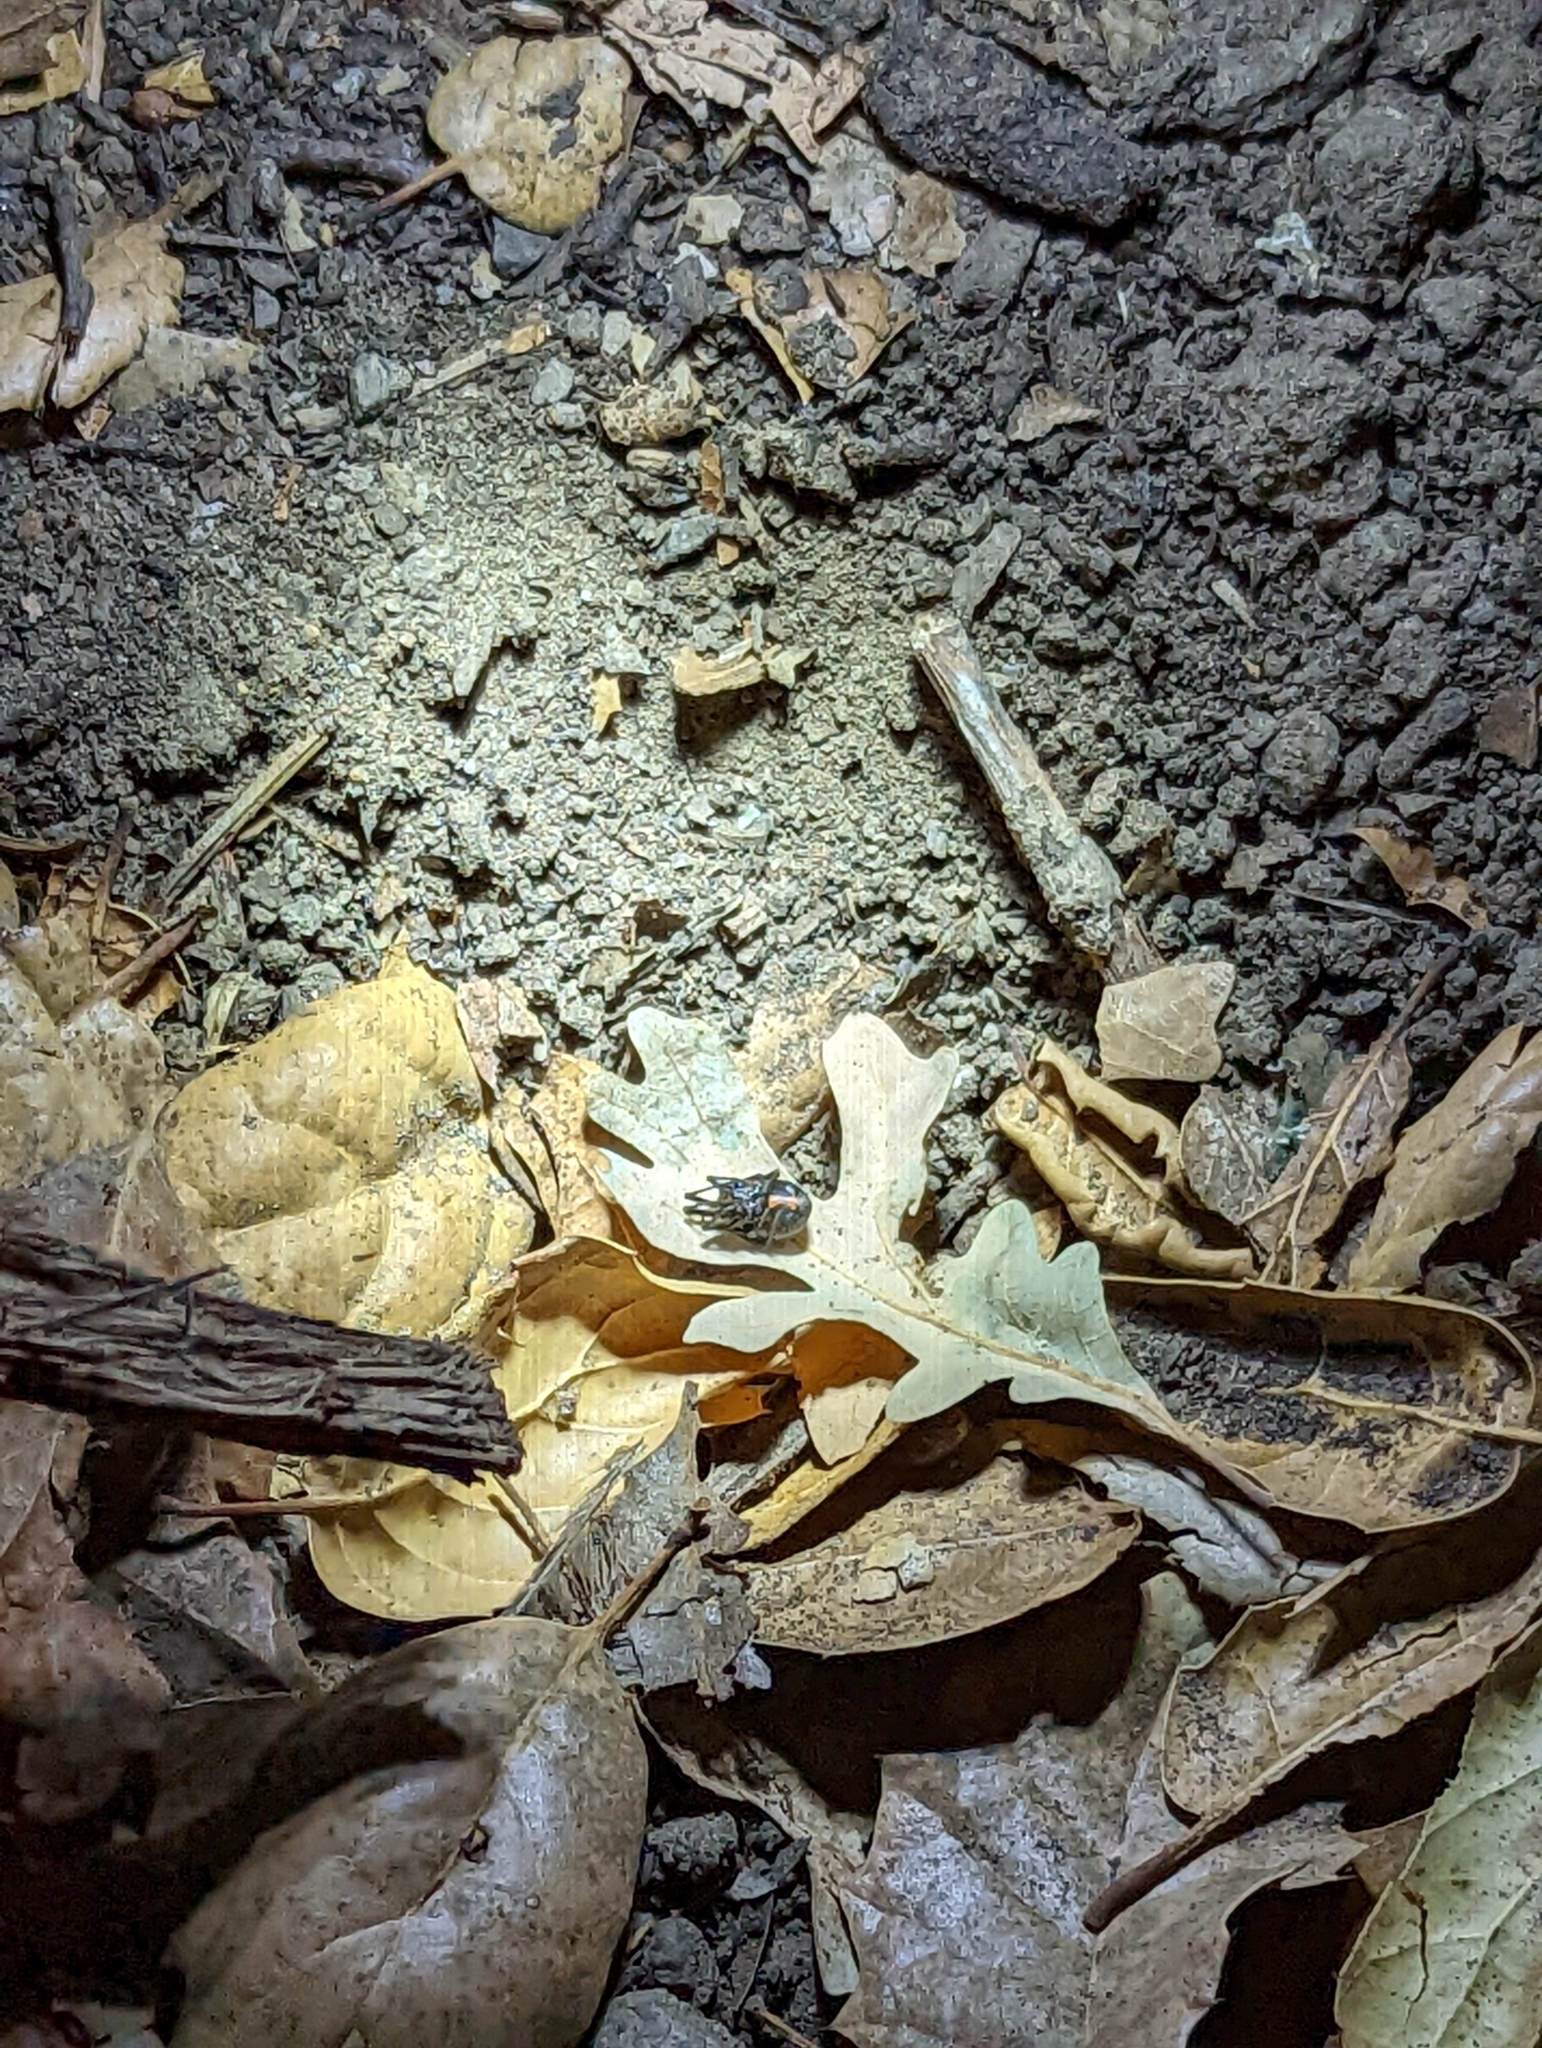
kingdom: Animalia
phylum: Arthropoda
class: Arachnida
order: Araneae
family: Theridiidae
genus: Latrodectus
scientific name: Latrodectus hesperus
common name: Western black widow
